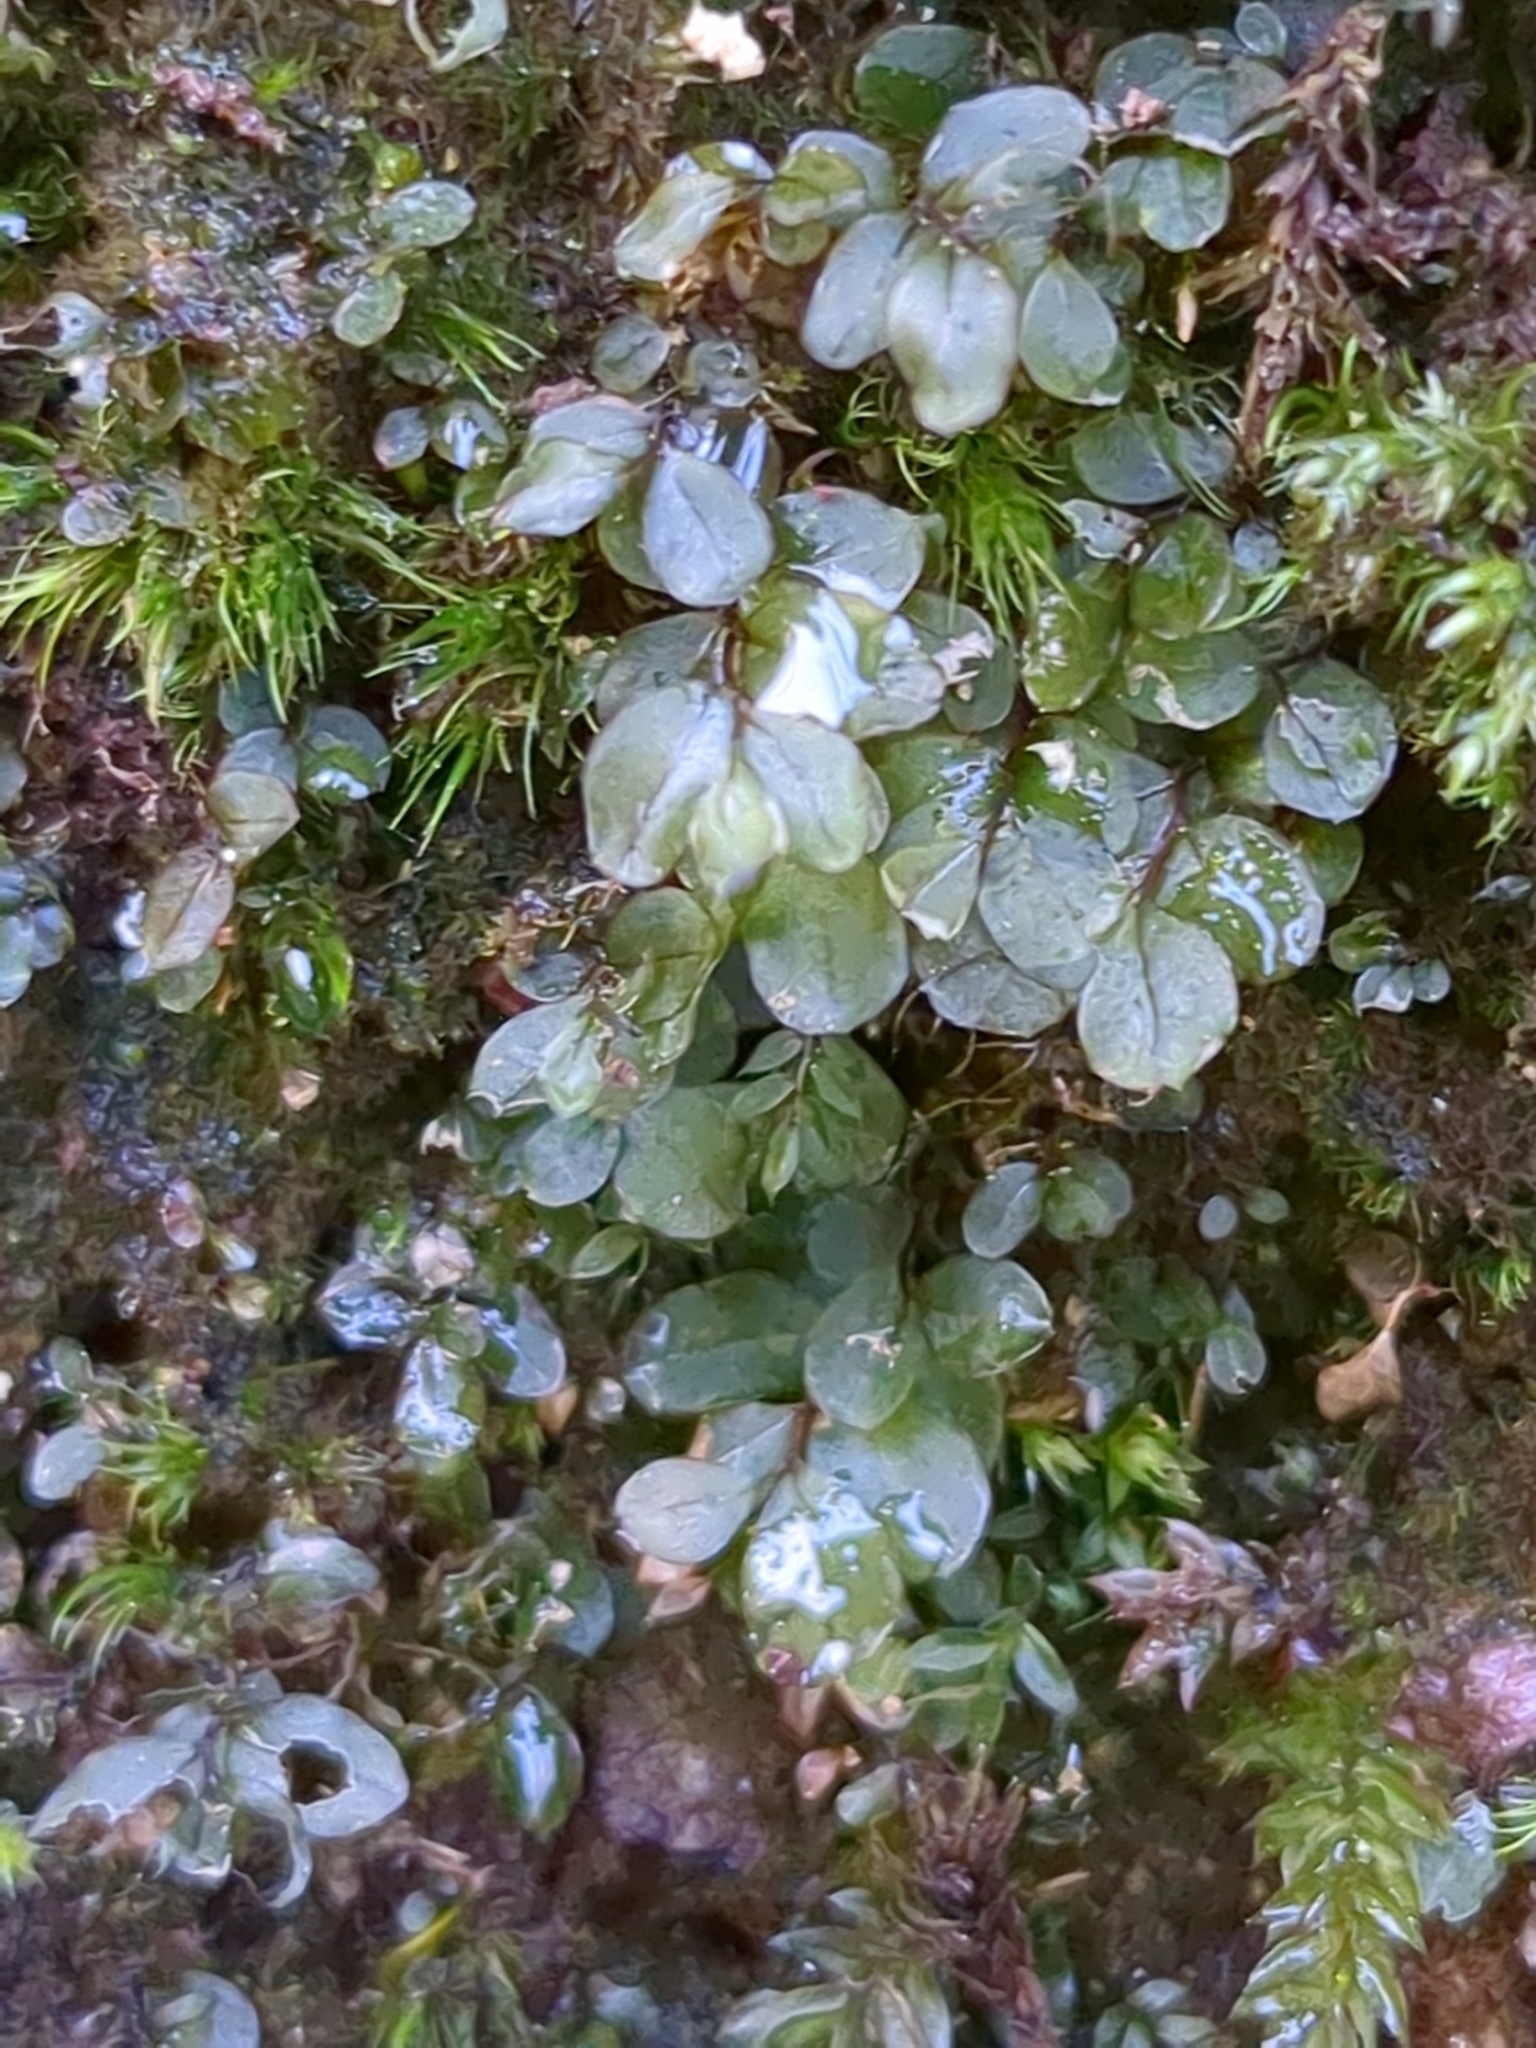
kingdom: Plantae
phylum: Bryophyta
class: Bryopsida
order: Bryales
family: Mniaceae
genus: Rhizomnium
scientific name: Rhizomnium punctatum
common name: Dotted leafy moss
